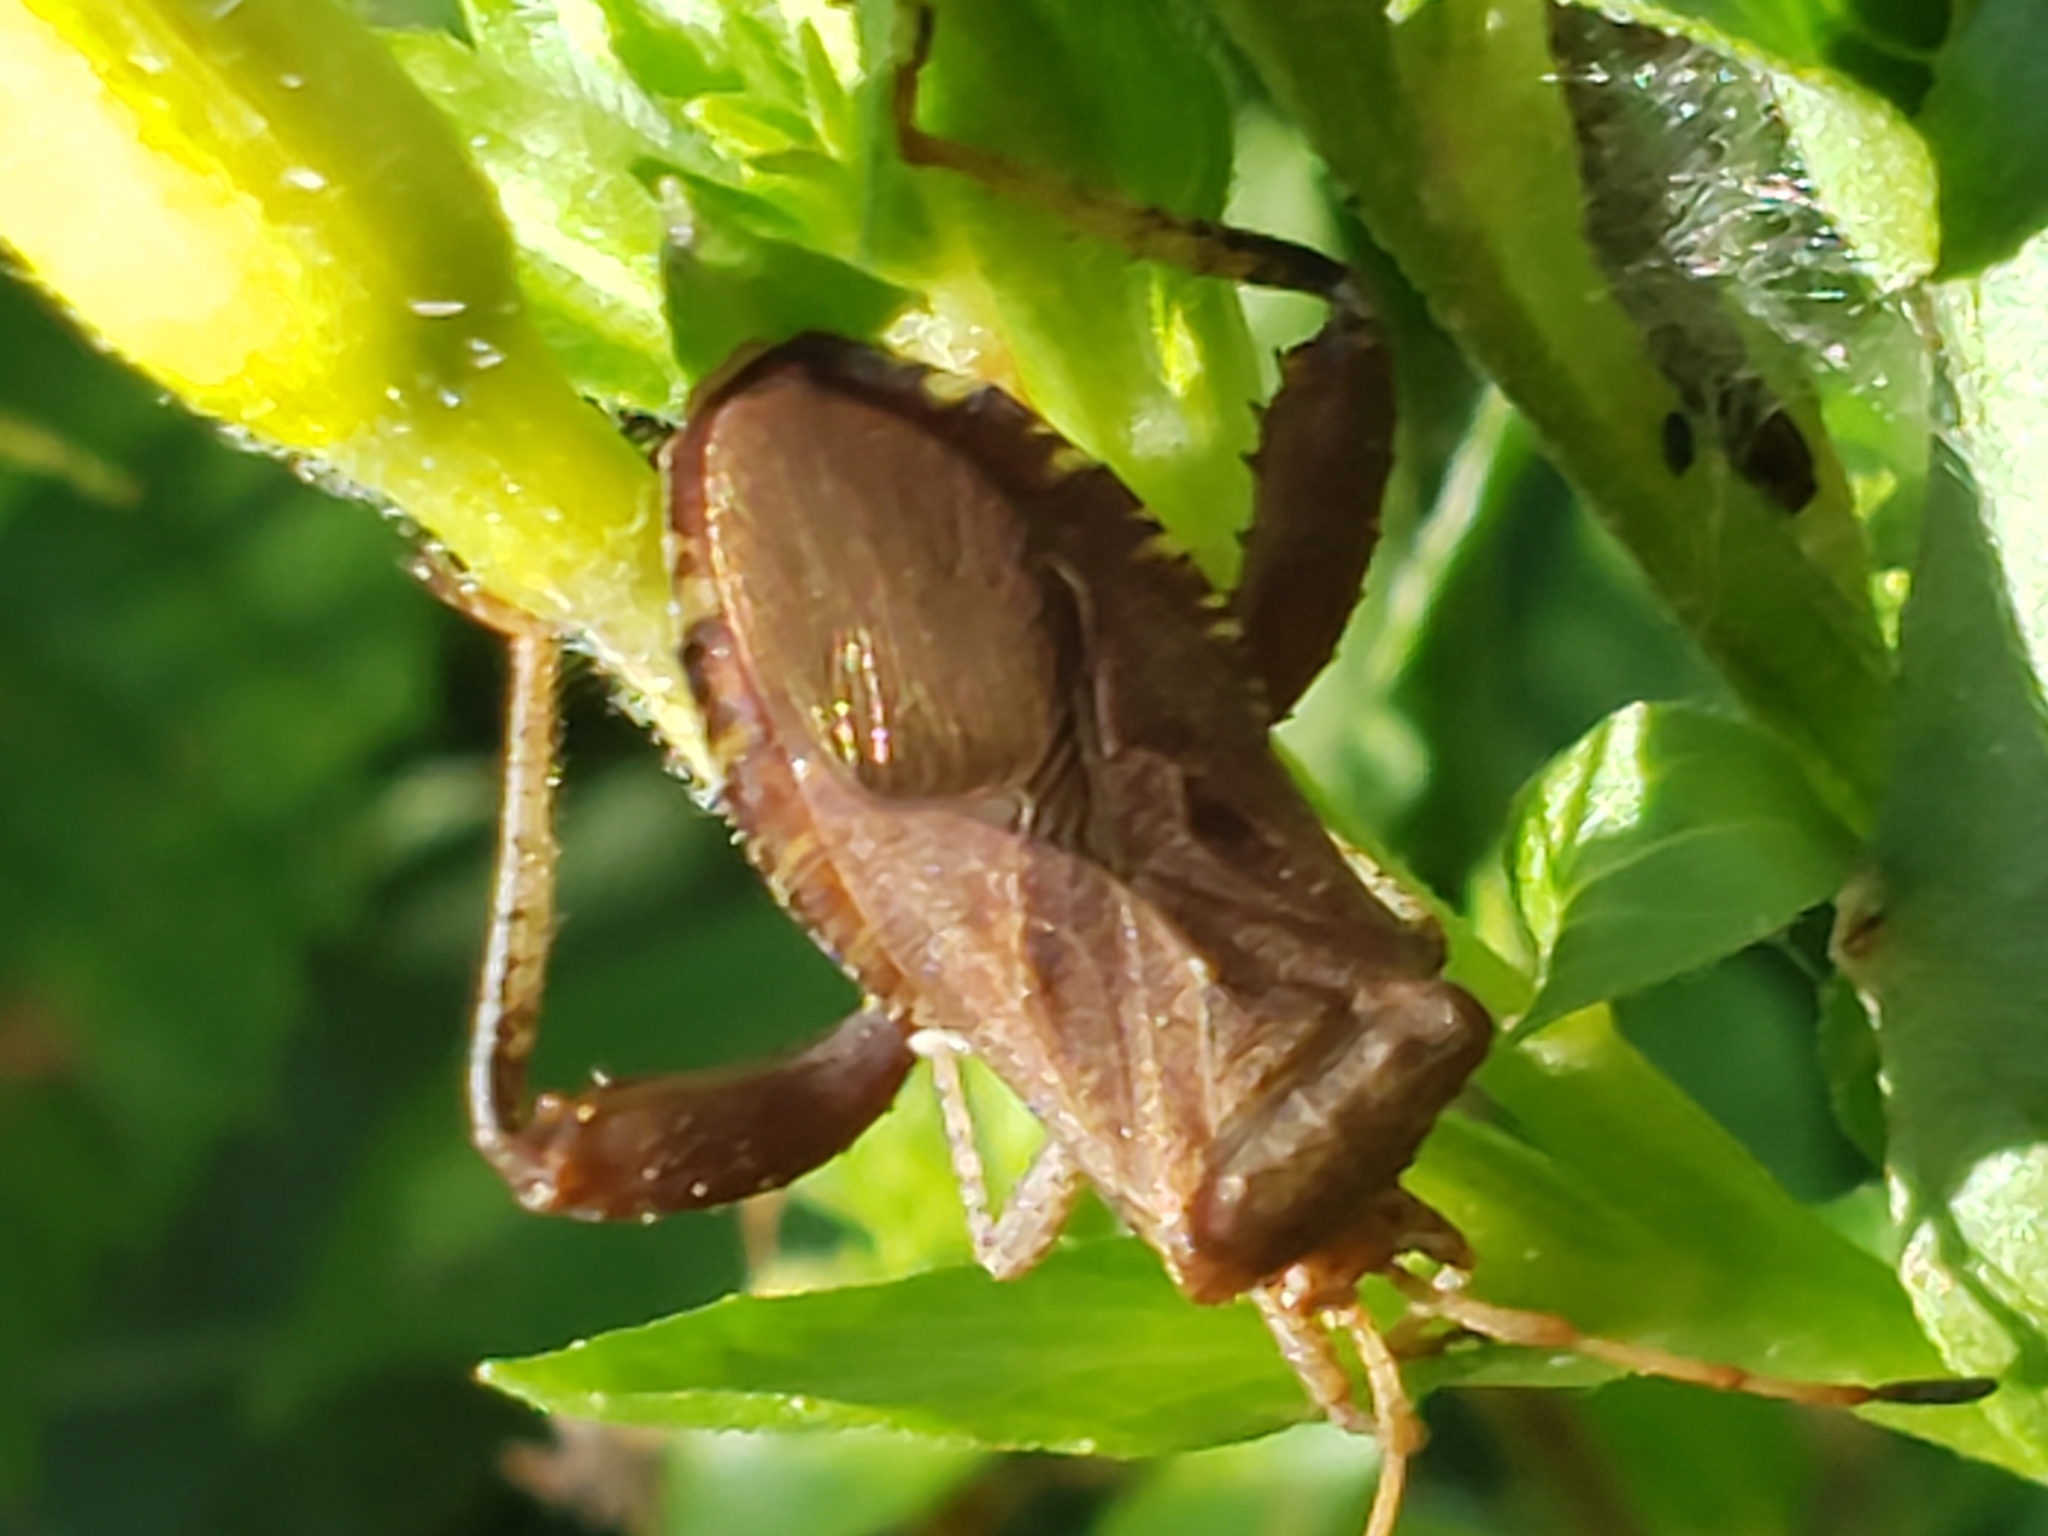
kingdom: Animalia
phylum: Arthropoda
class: Insecta
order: Hemiptera
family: Coreidae
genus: Euthochtha
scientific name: Euthochtha galeator
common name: Helmeted squash bug
